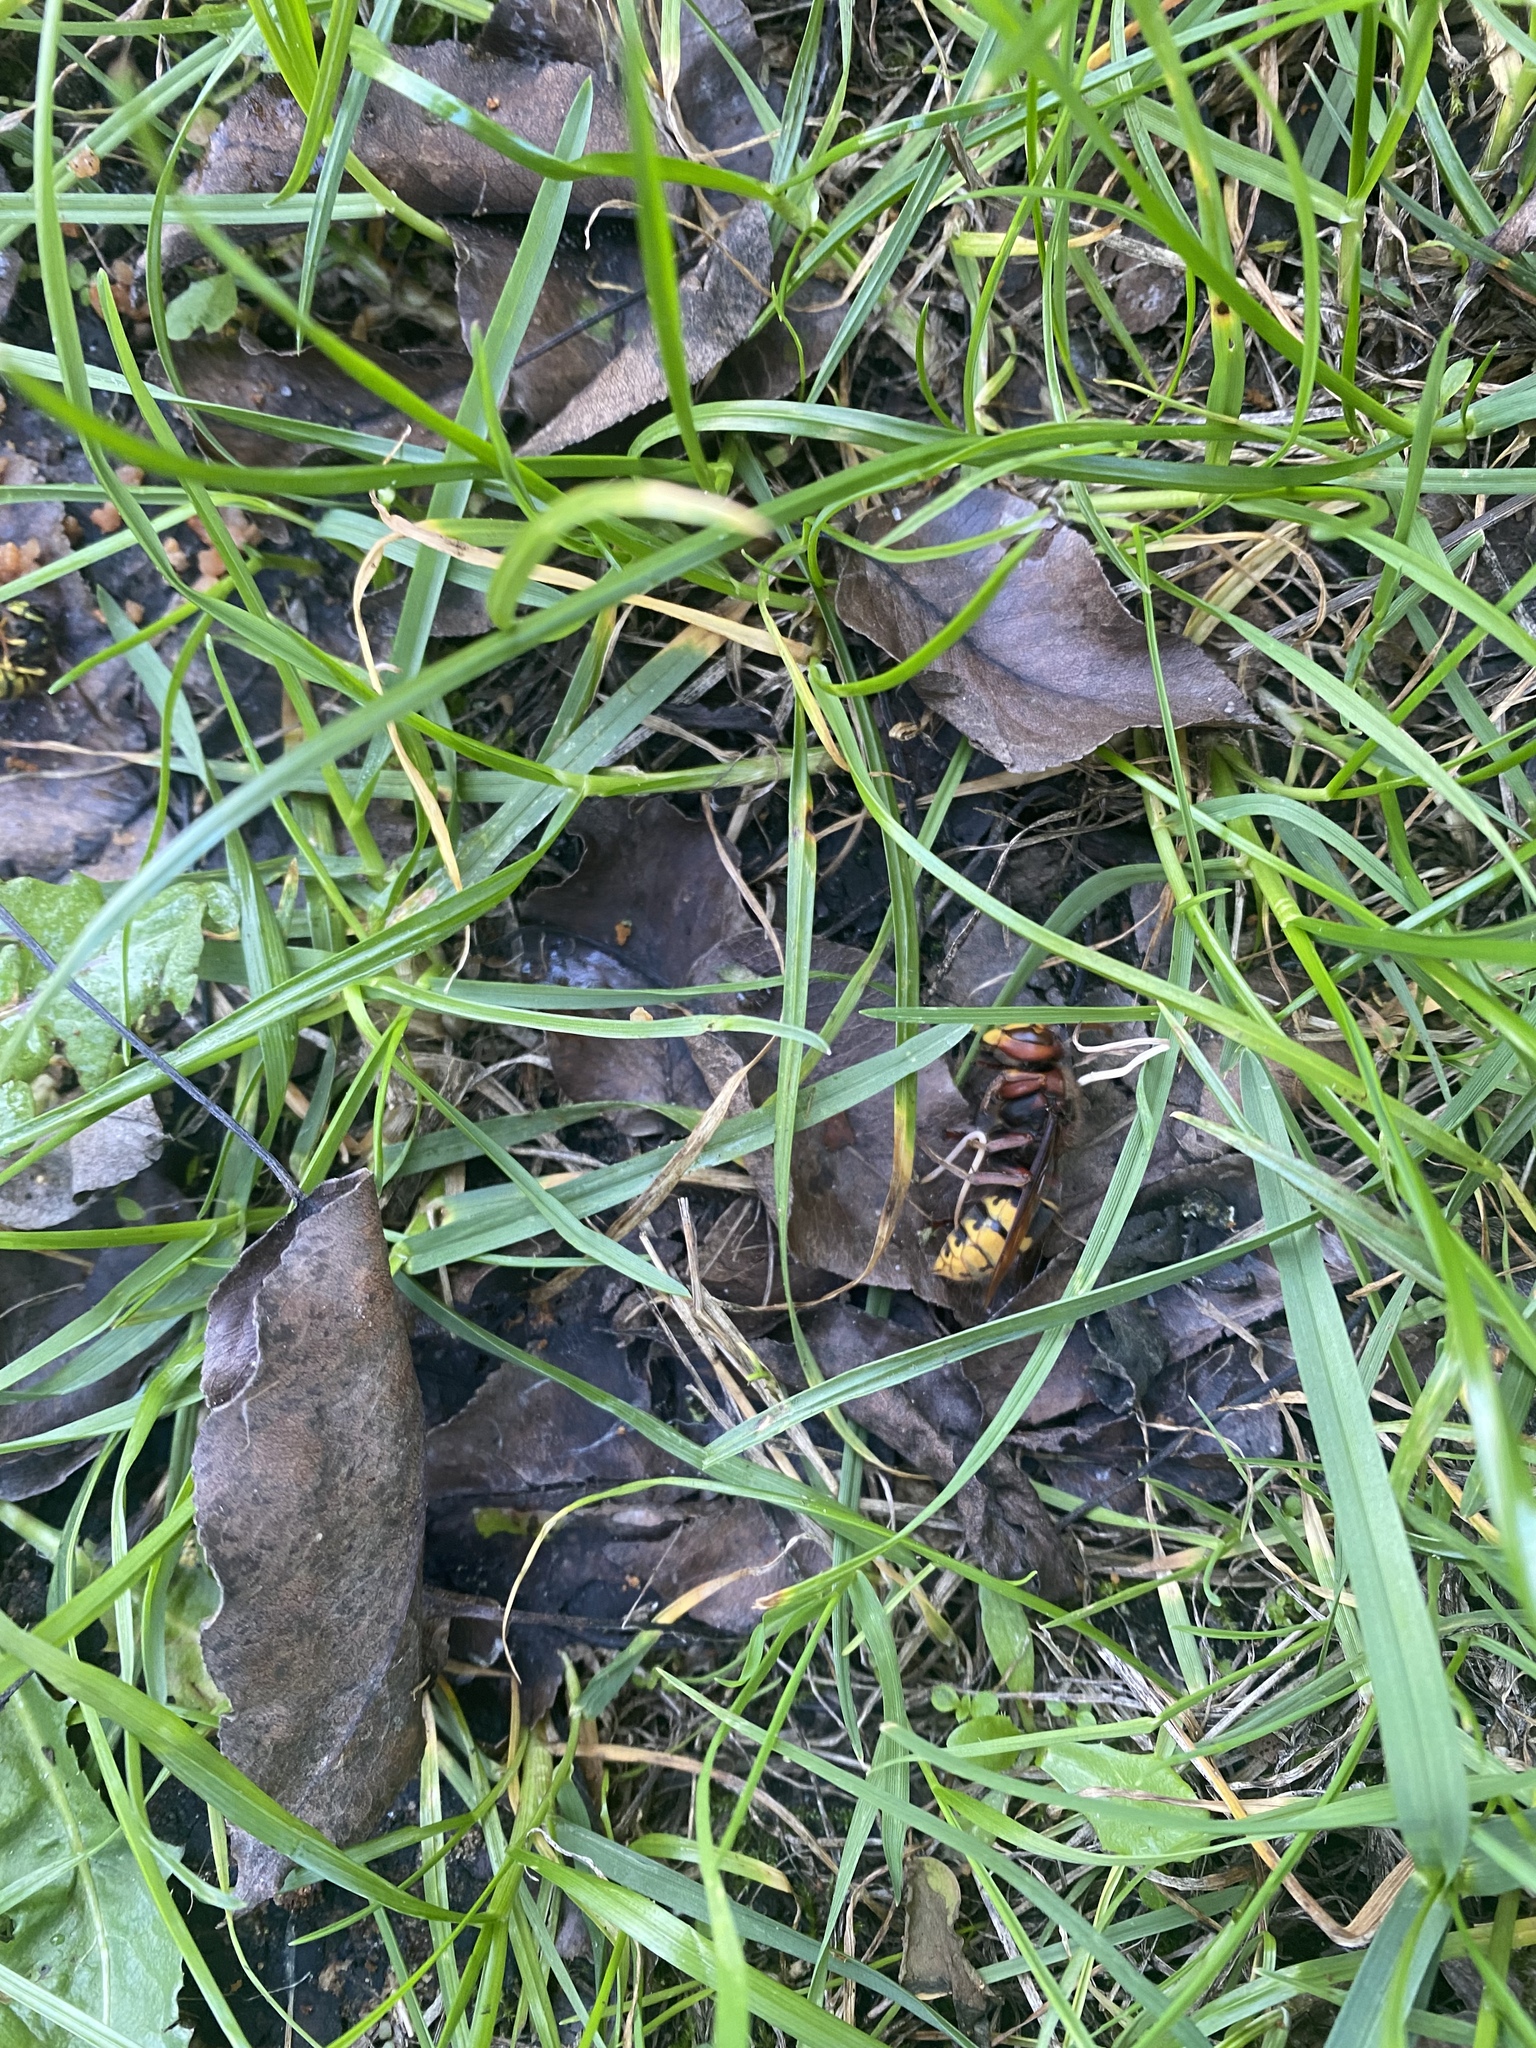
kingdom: Animalia
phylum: Arthropoda
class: Insecta
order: Hymenoptera
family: Vespidae
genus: Vespa
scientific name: Vespa crabro
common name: Hornet
